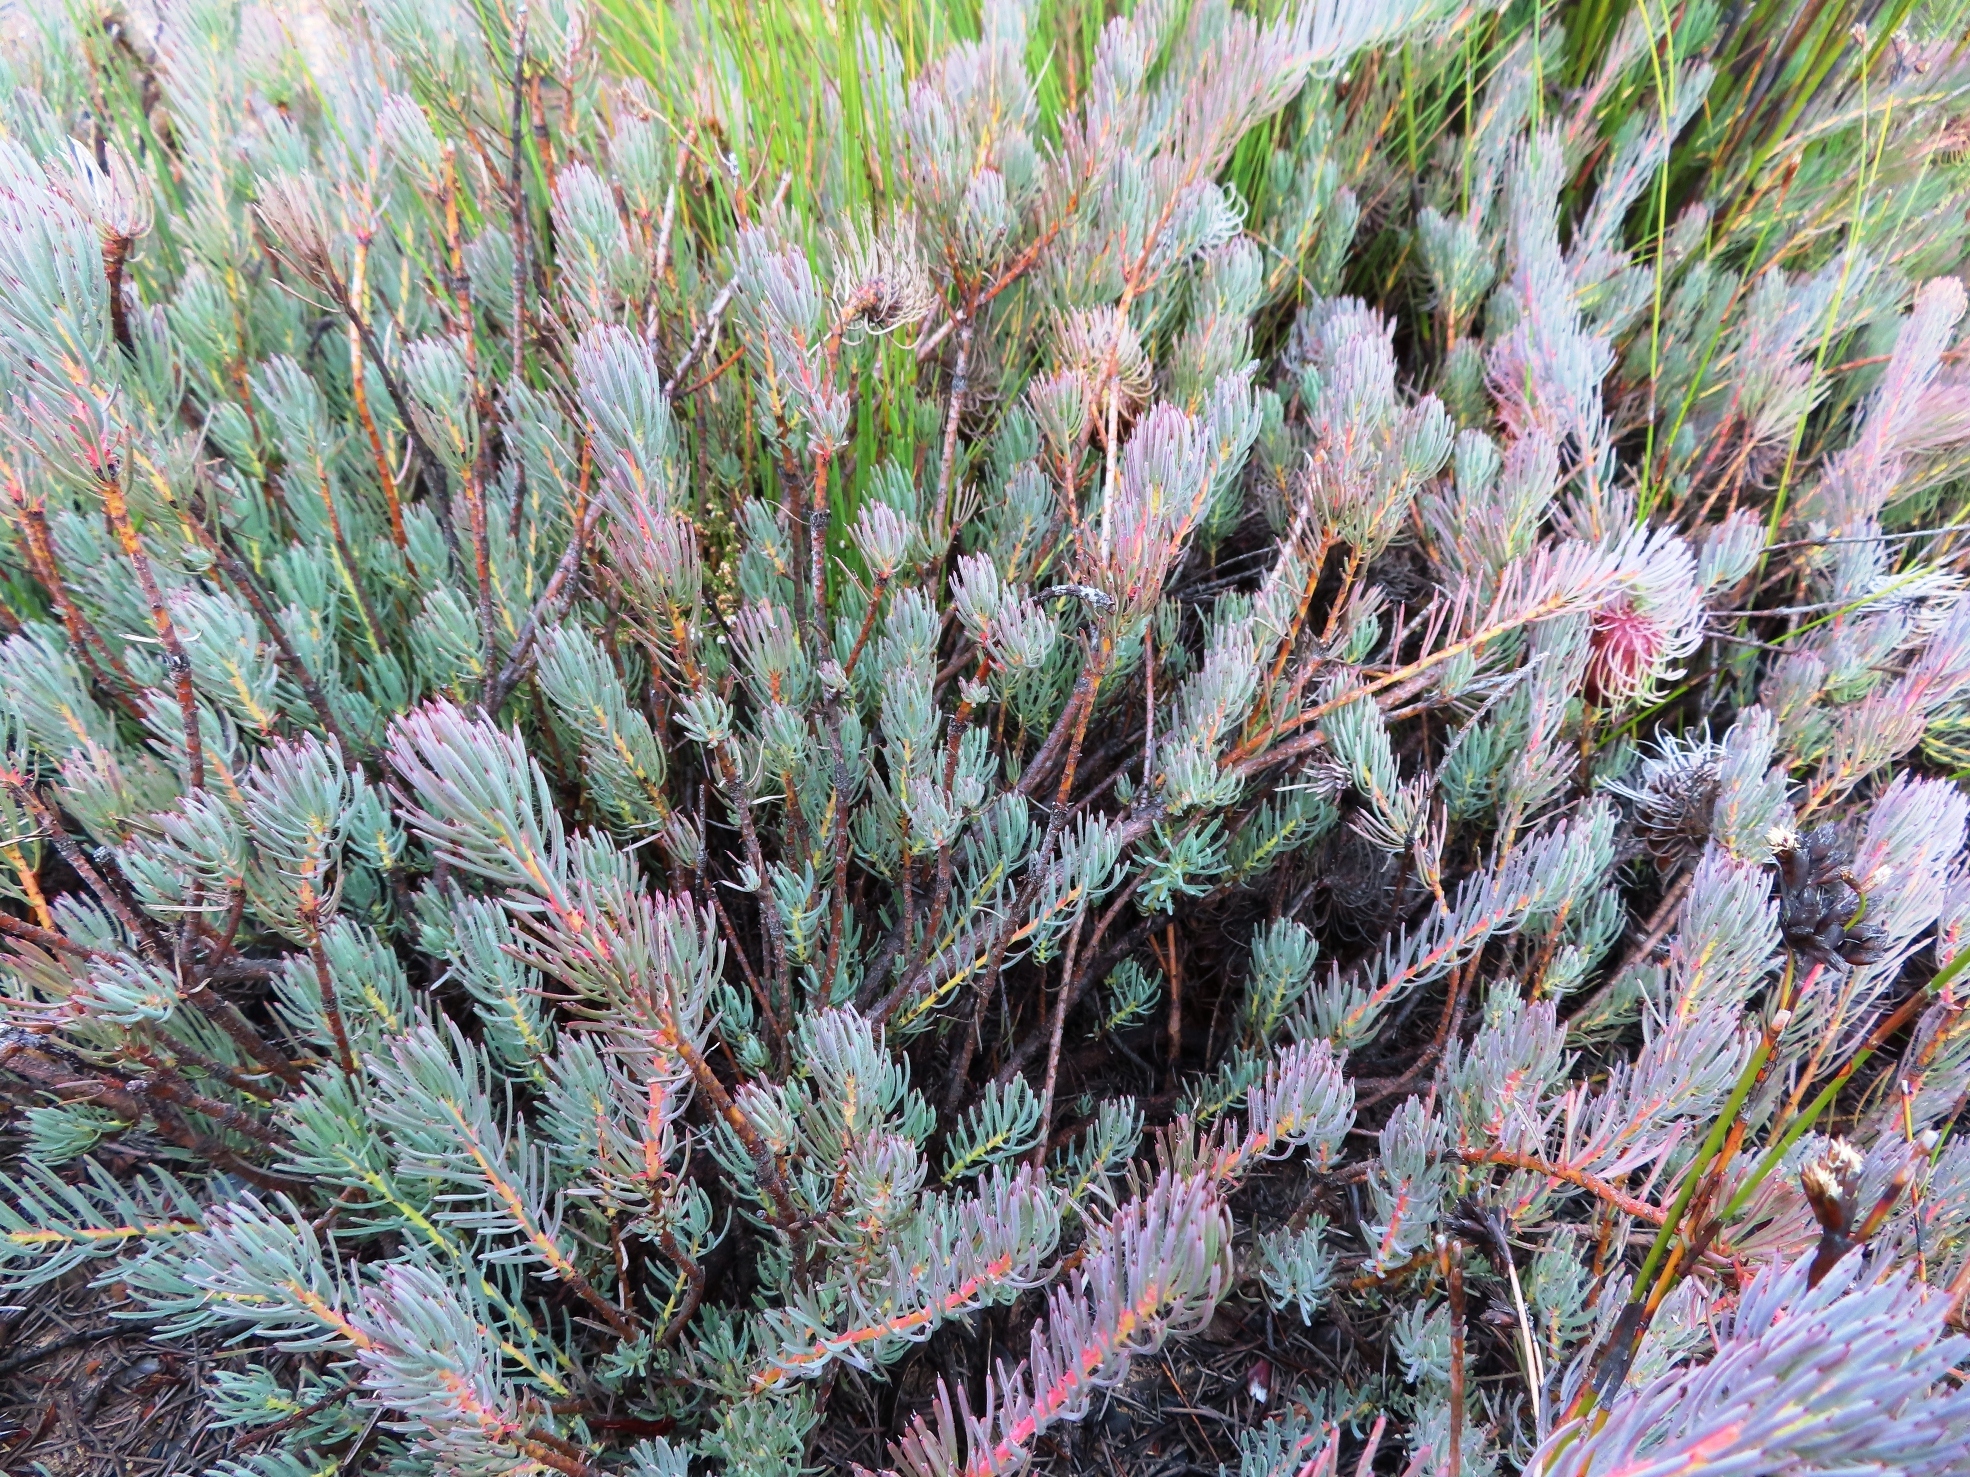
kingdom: Plantae
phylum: Tracheophyta
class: Magnoliopsida
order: Proteales
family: Proteaceae
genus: Protea
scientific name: Protea witzenbergiana
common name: Swan sugarbush
